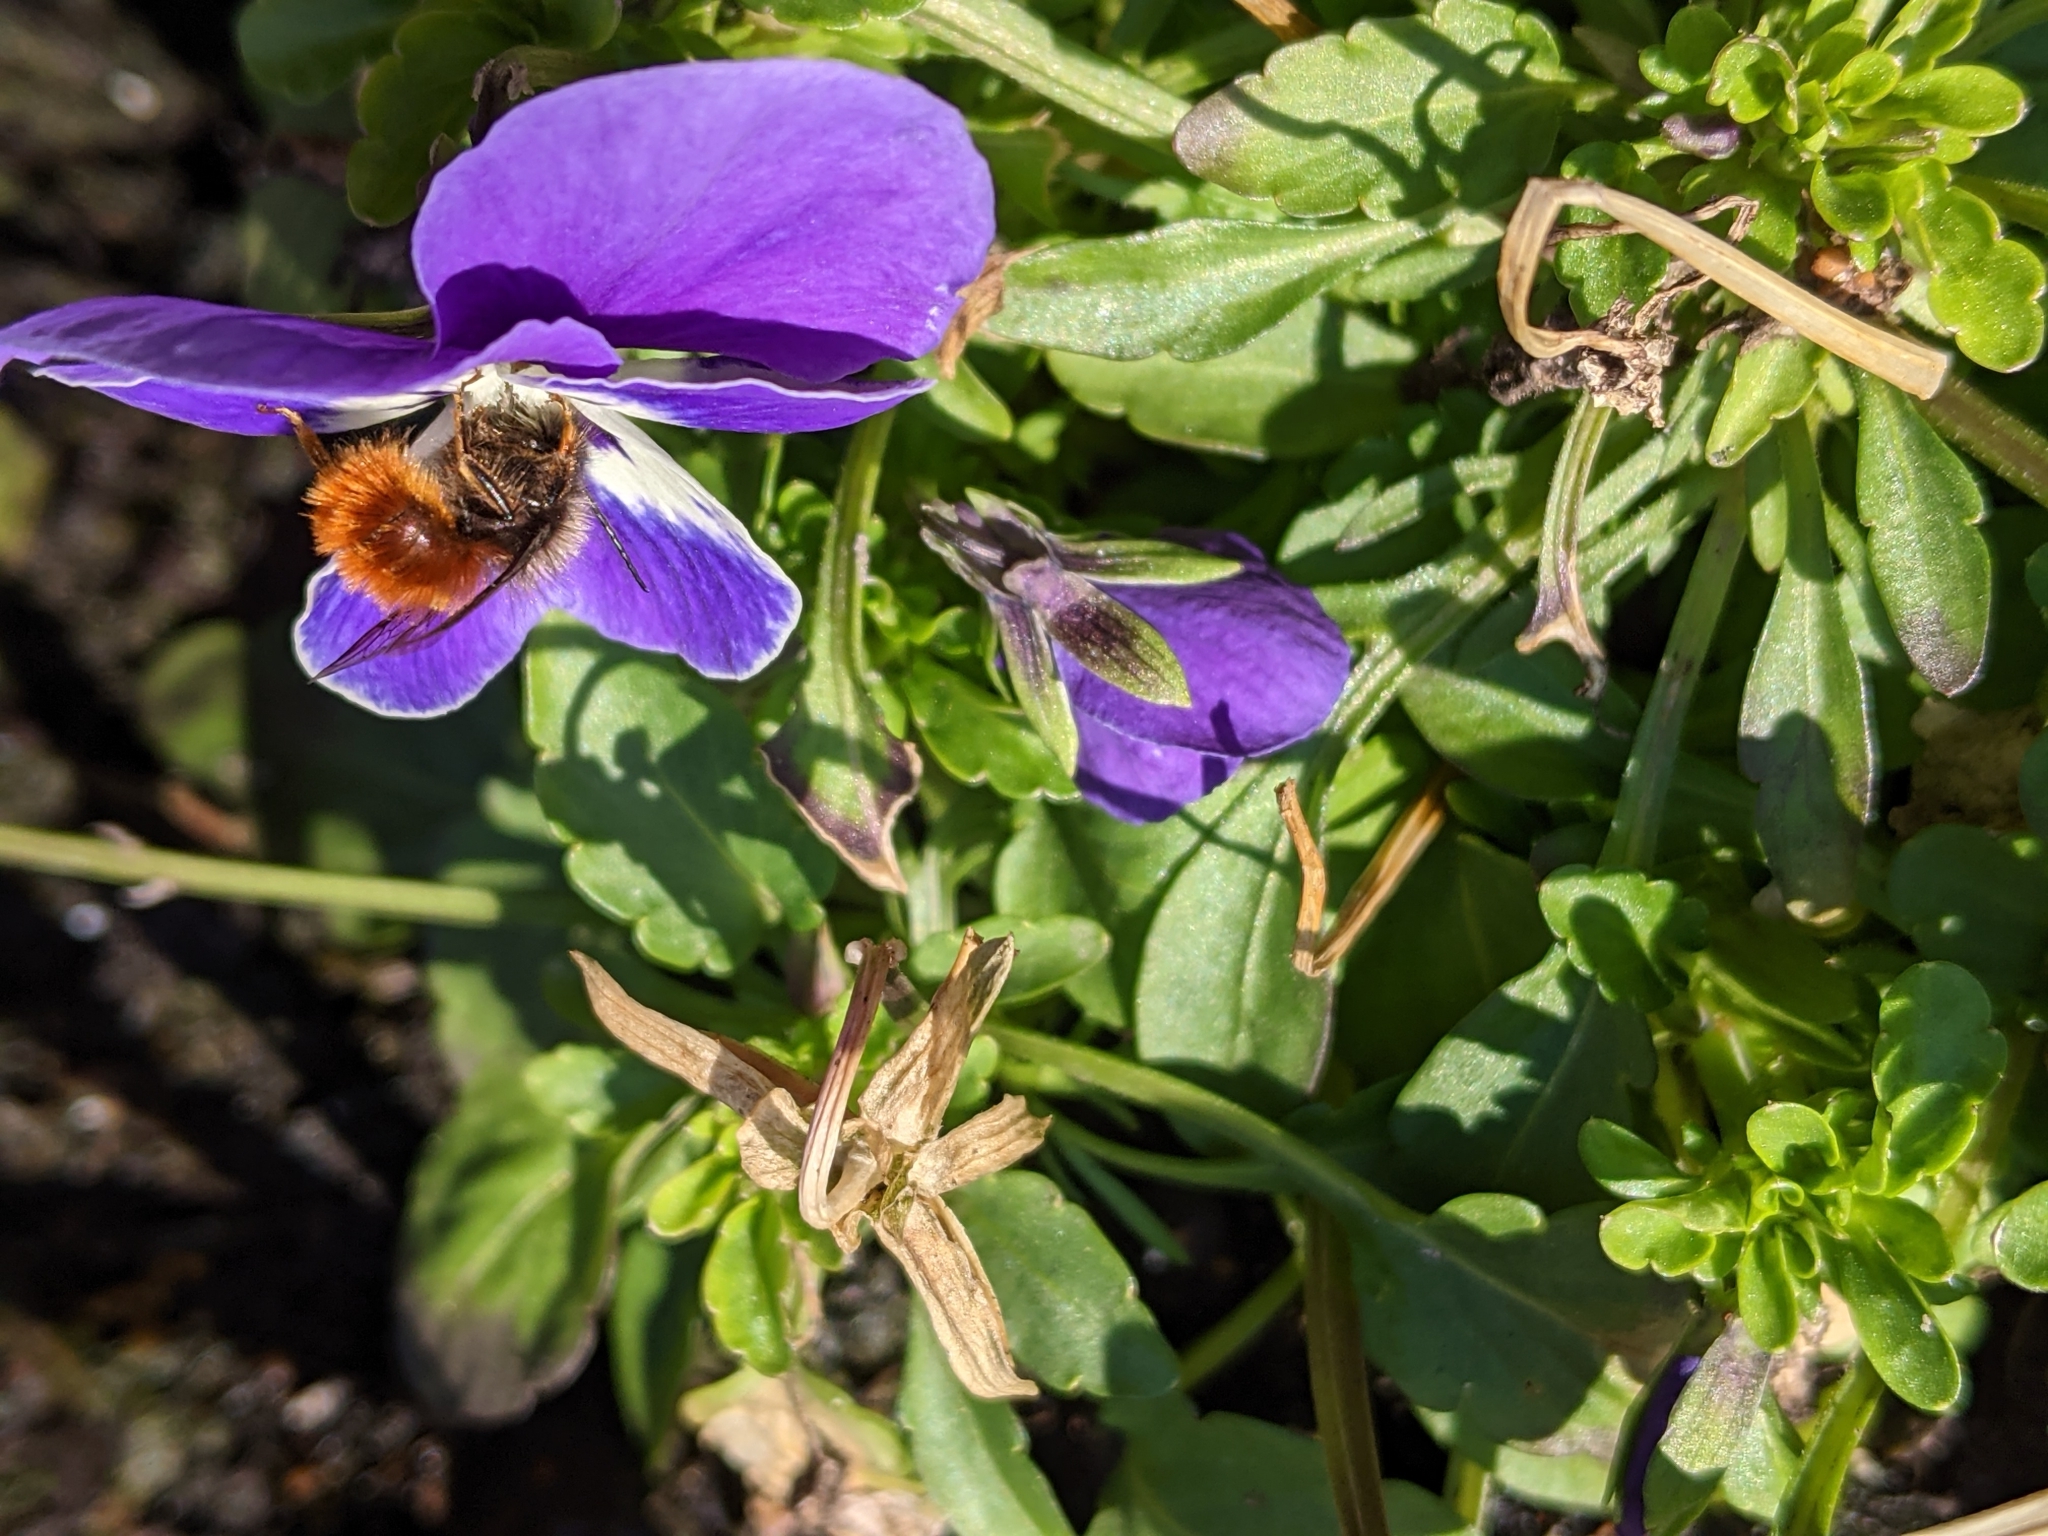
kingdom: Animalia
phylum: Arthropoda
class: Insecta
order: Hymenoptera
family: Megachilidae
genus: Osmia
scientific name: Osmia cornuta
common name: Mason bee
